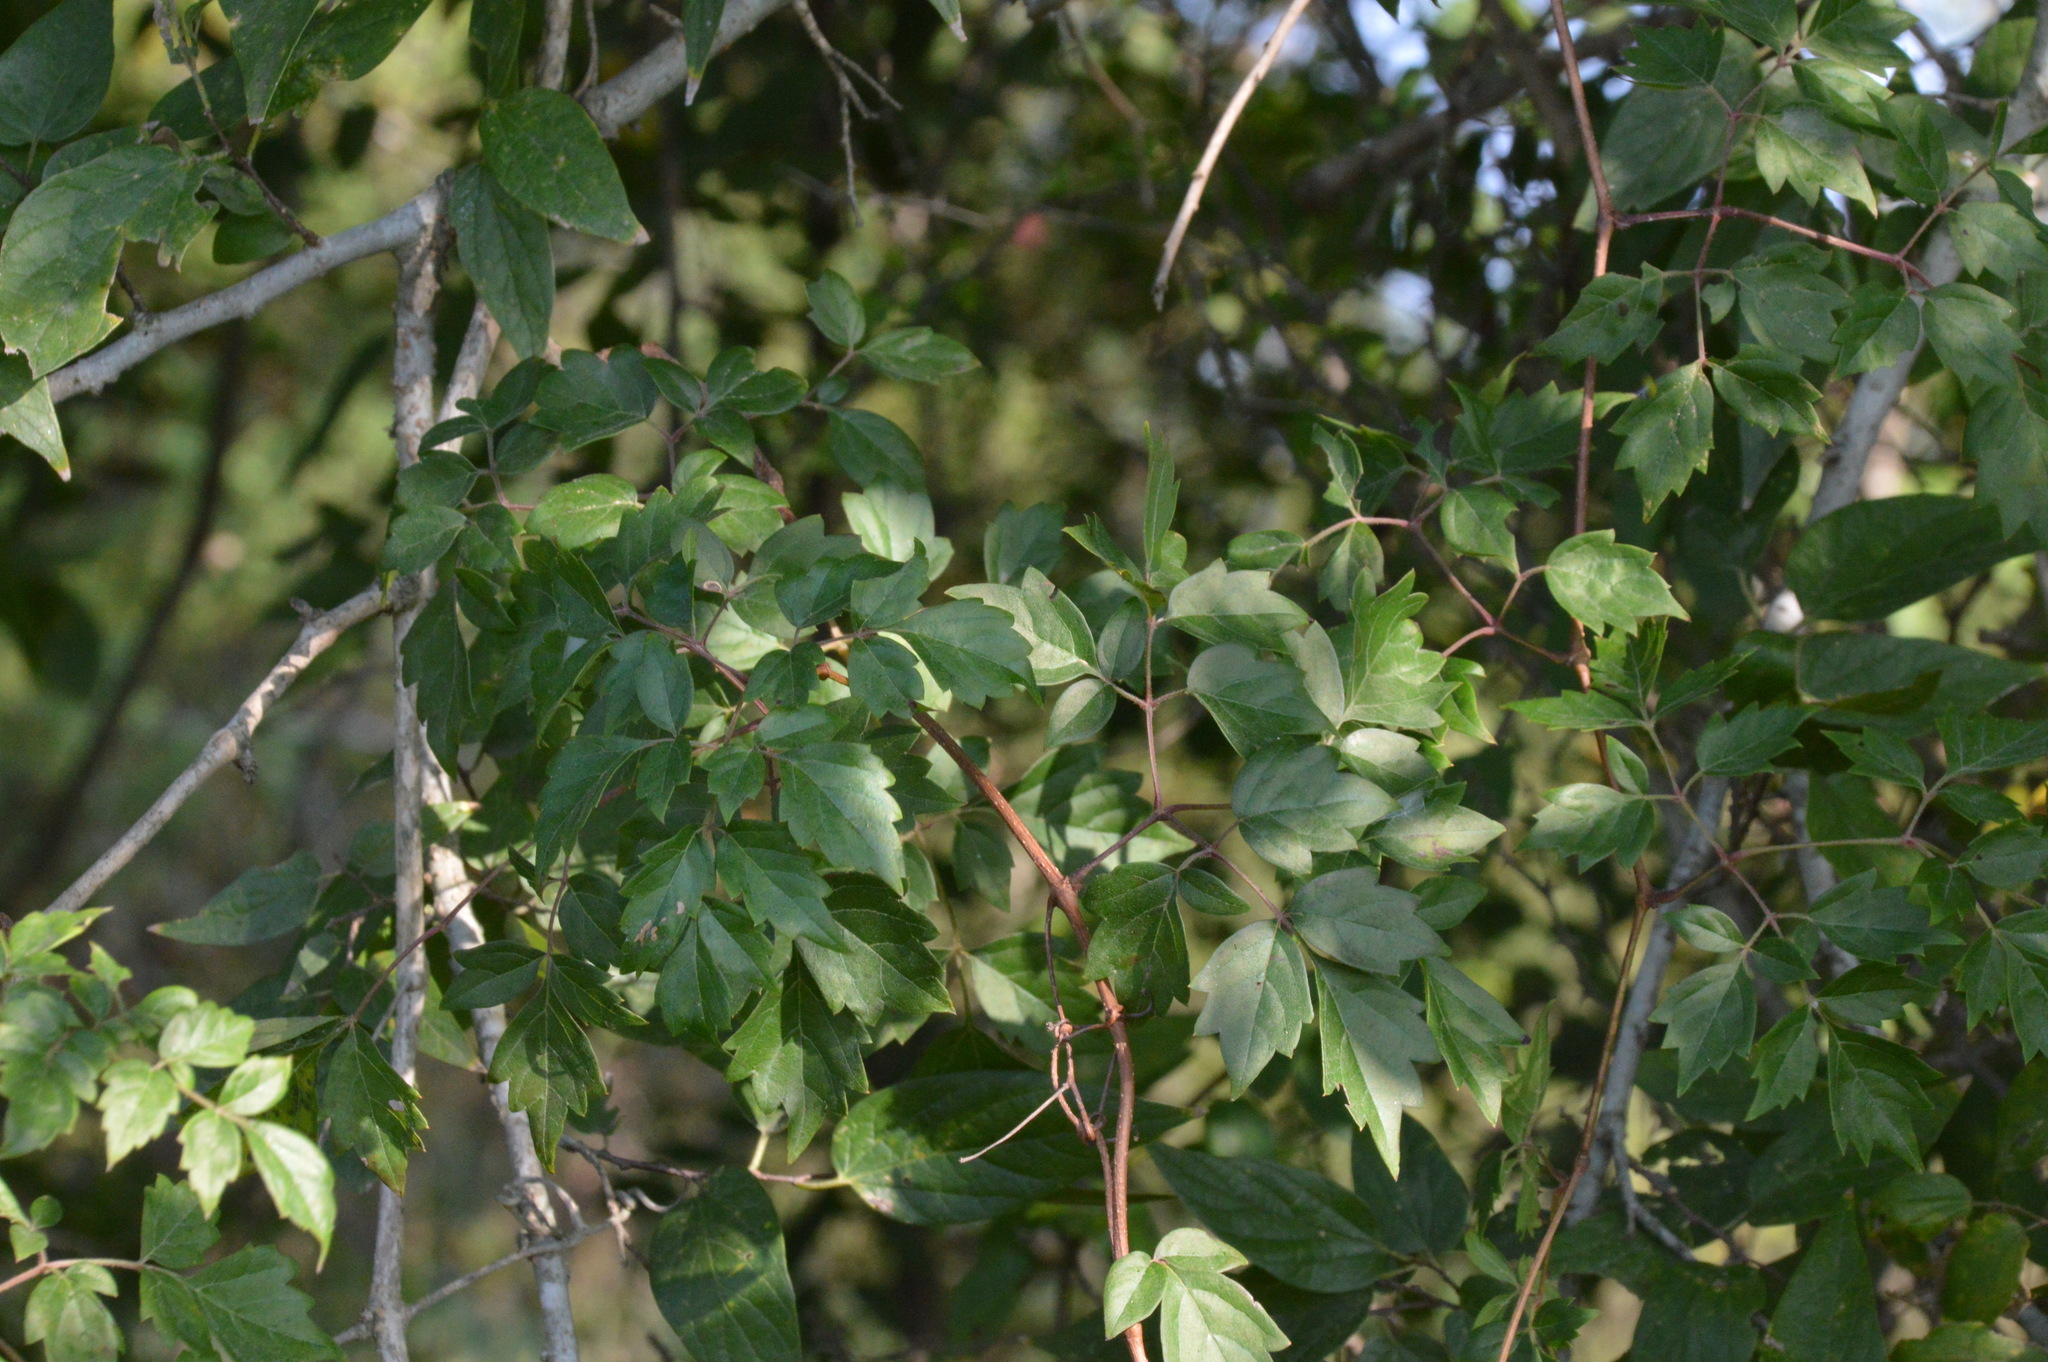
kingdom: Plantae
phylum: Tracheophyta
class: Magnoliopsida
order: Vitales
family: Vitaceae
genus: Nekemias
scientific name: Nekemias arborea
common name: Peppervine
